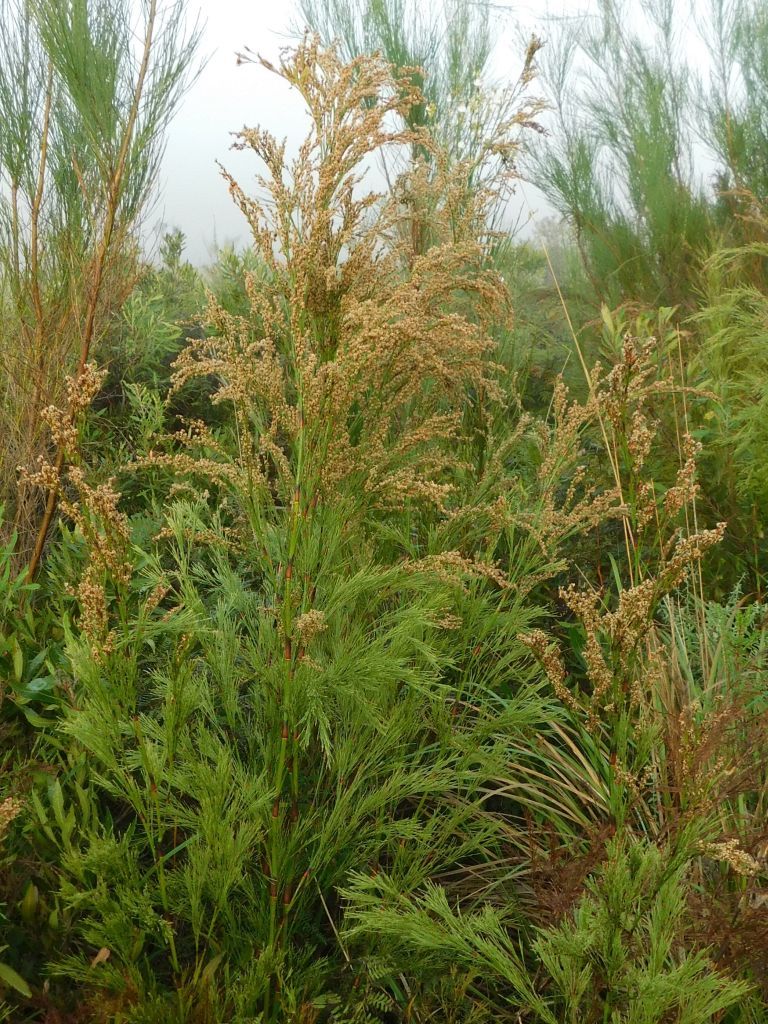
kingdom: Plantae
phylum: Tracheophyta
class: Liliopsida
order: Poales
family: Restionaceae
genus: Restio
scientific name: Restio paniculatus
